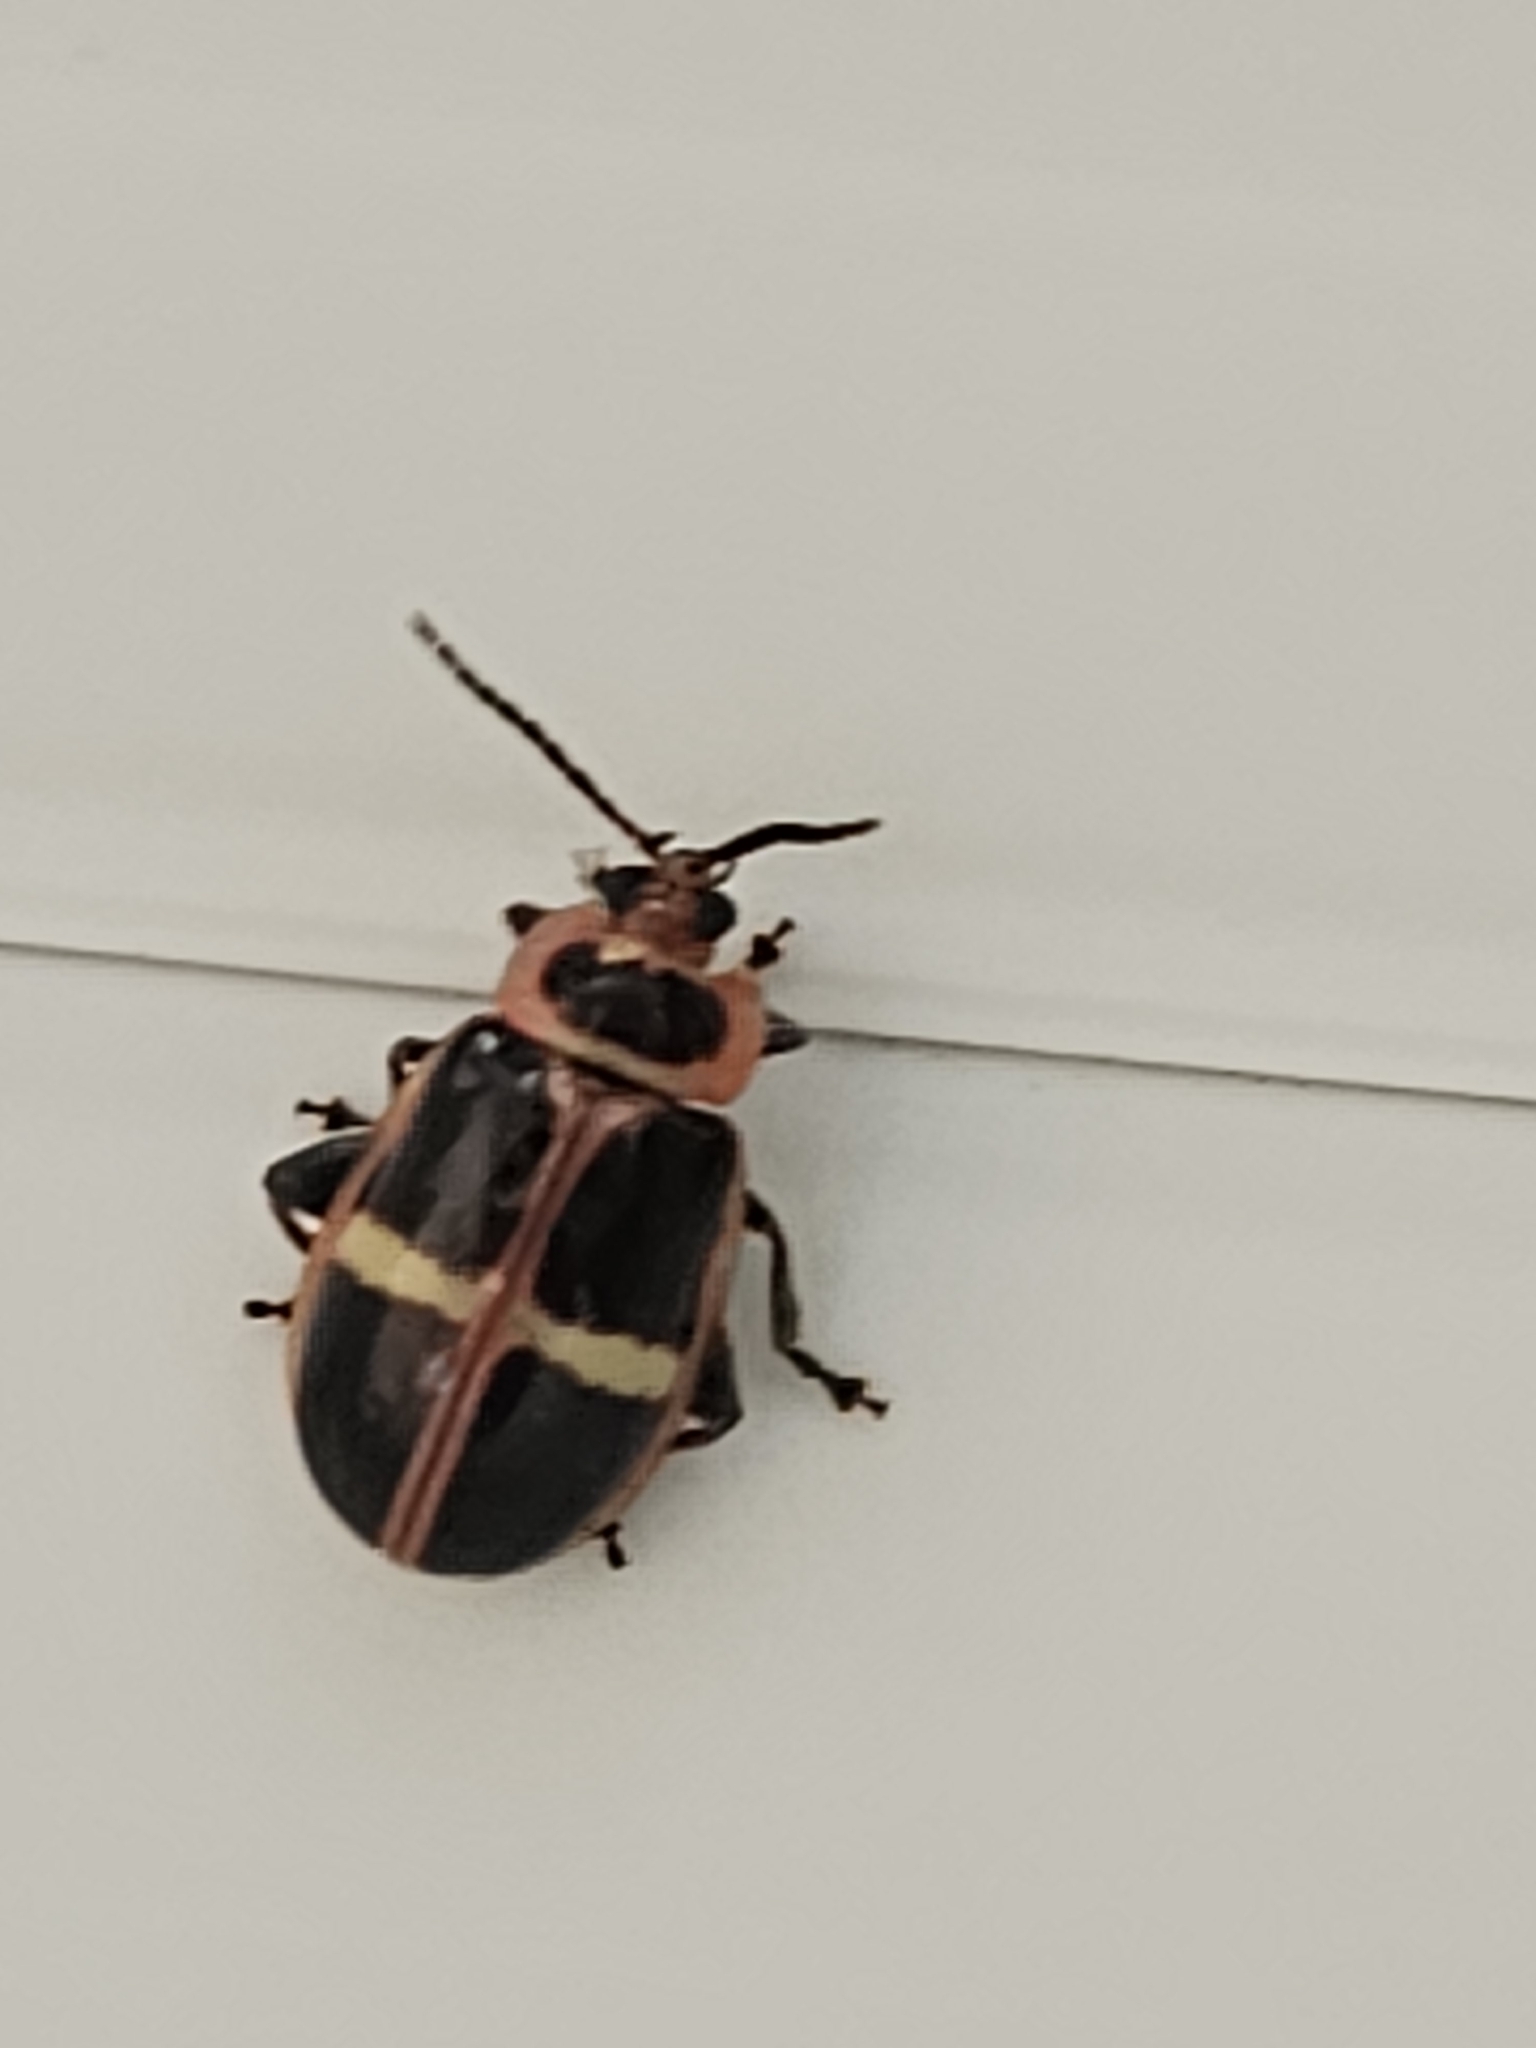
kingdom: Animalia
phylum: Arthropoda
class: Insecta
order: Coleoptera
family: Chrysomelidae
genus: Asphaera
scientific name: Asphaera
